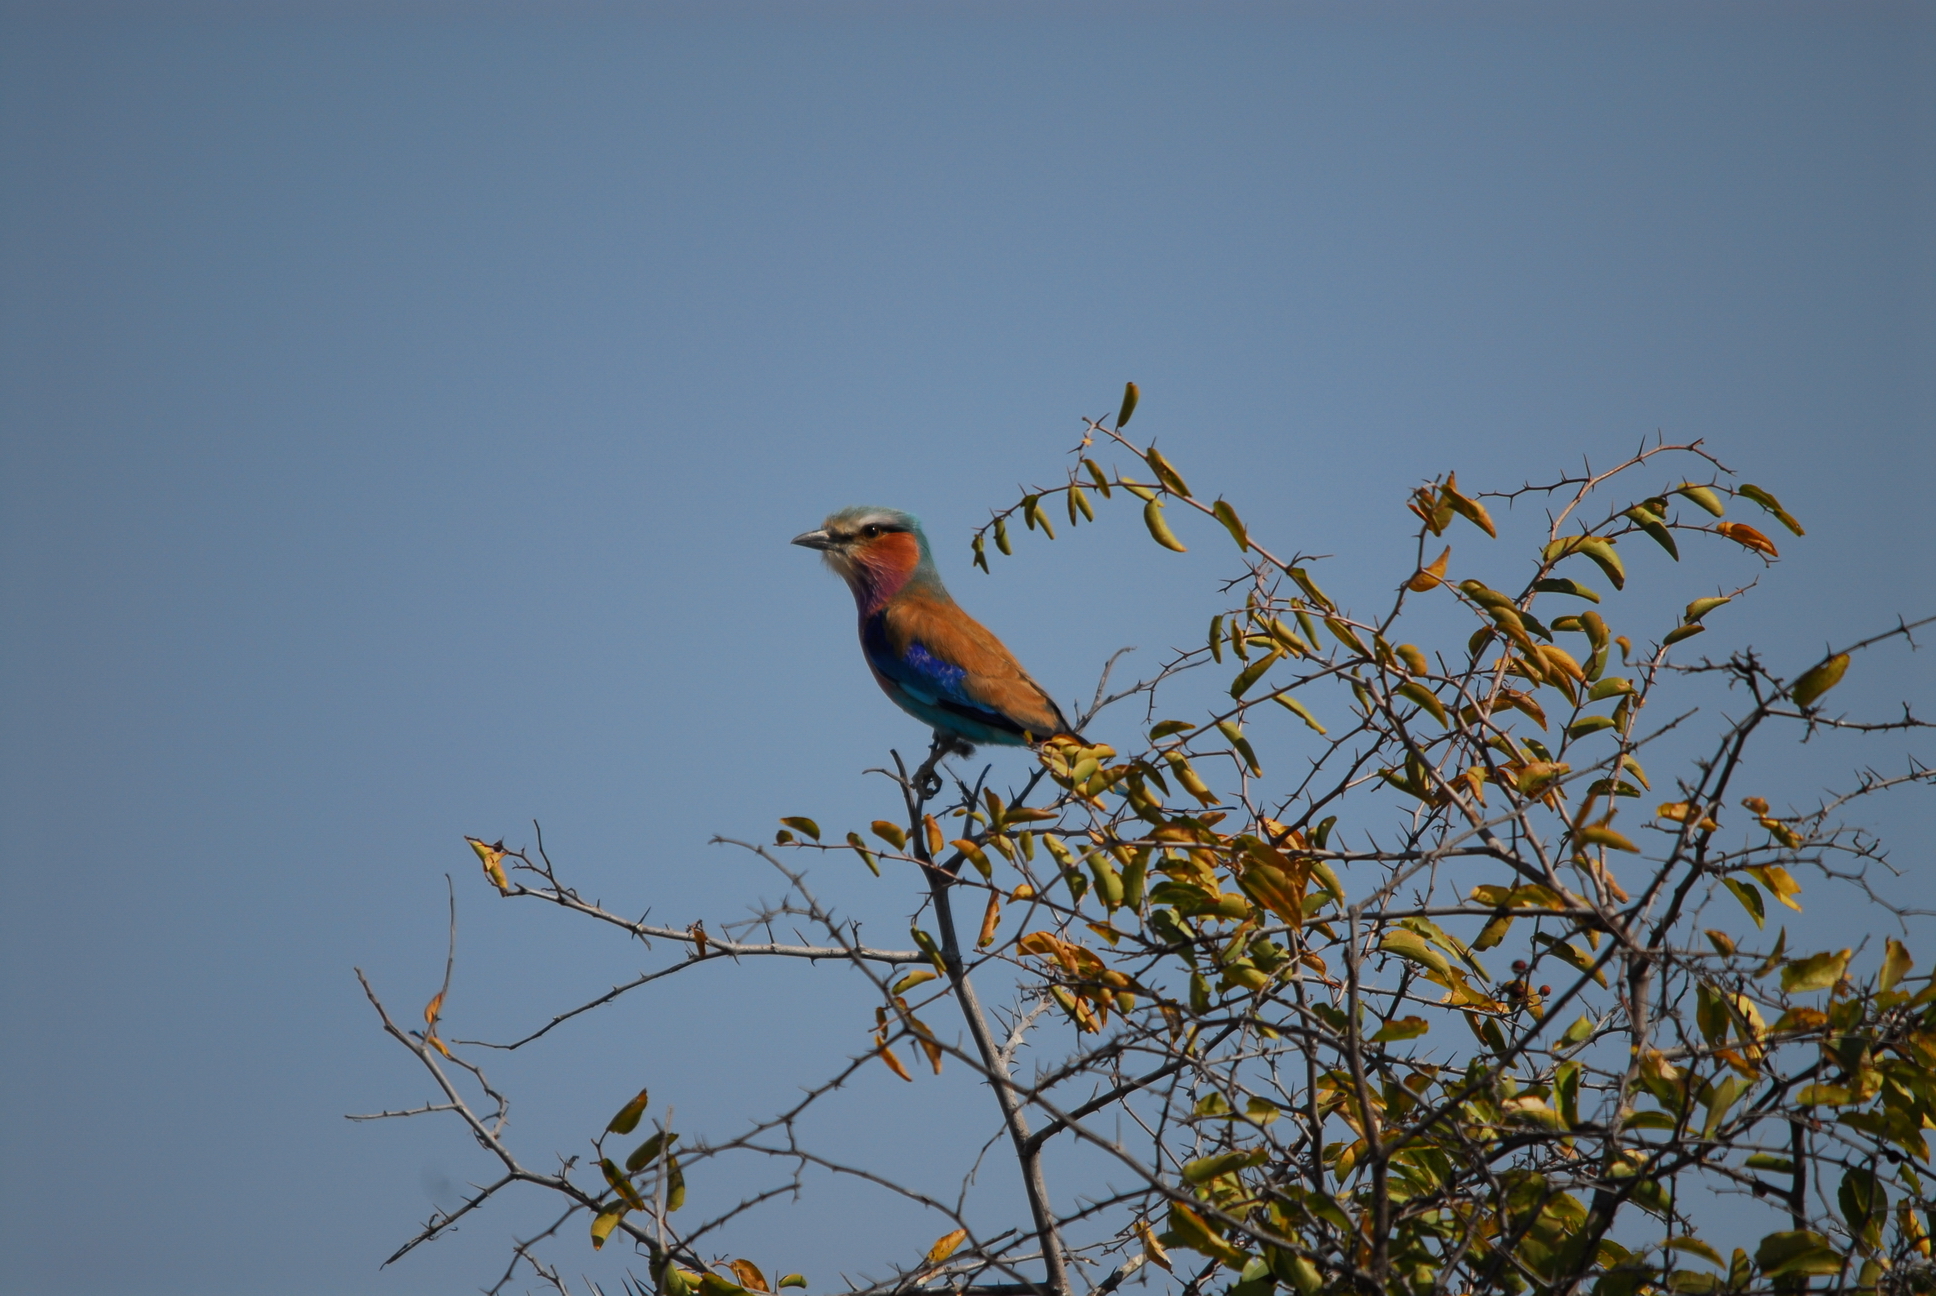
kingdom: Animalia
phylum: Chordata
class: Aves
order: Coraciiformes
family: Coraciidae
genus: Coracias
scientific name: Coracias caudatus
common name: Lilac-breasted roller
